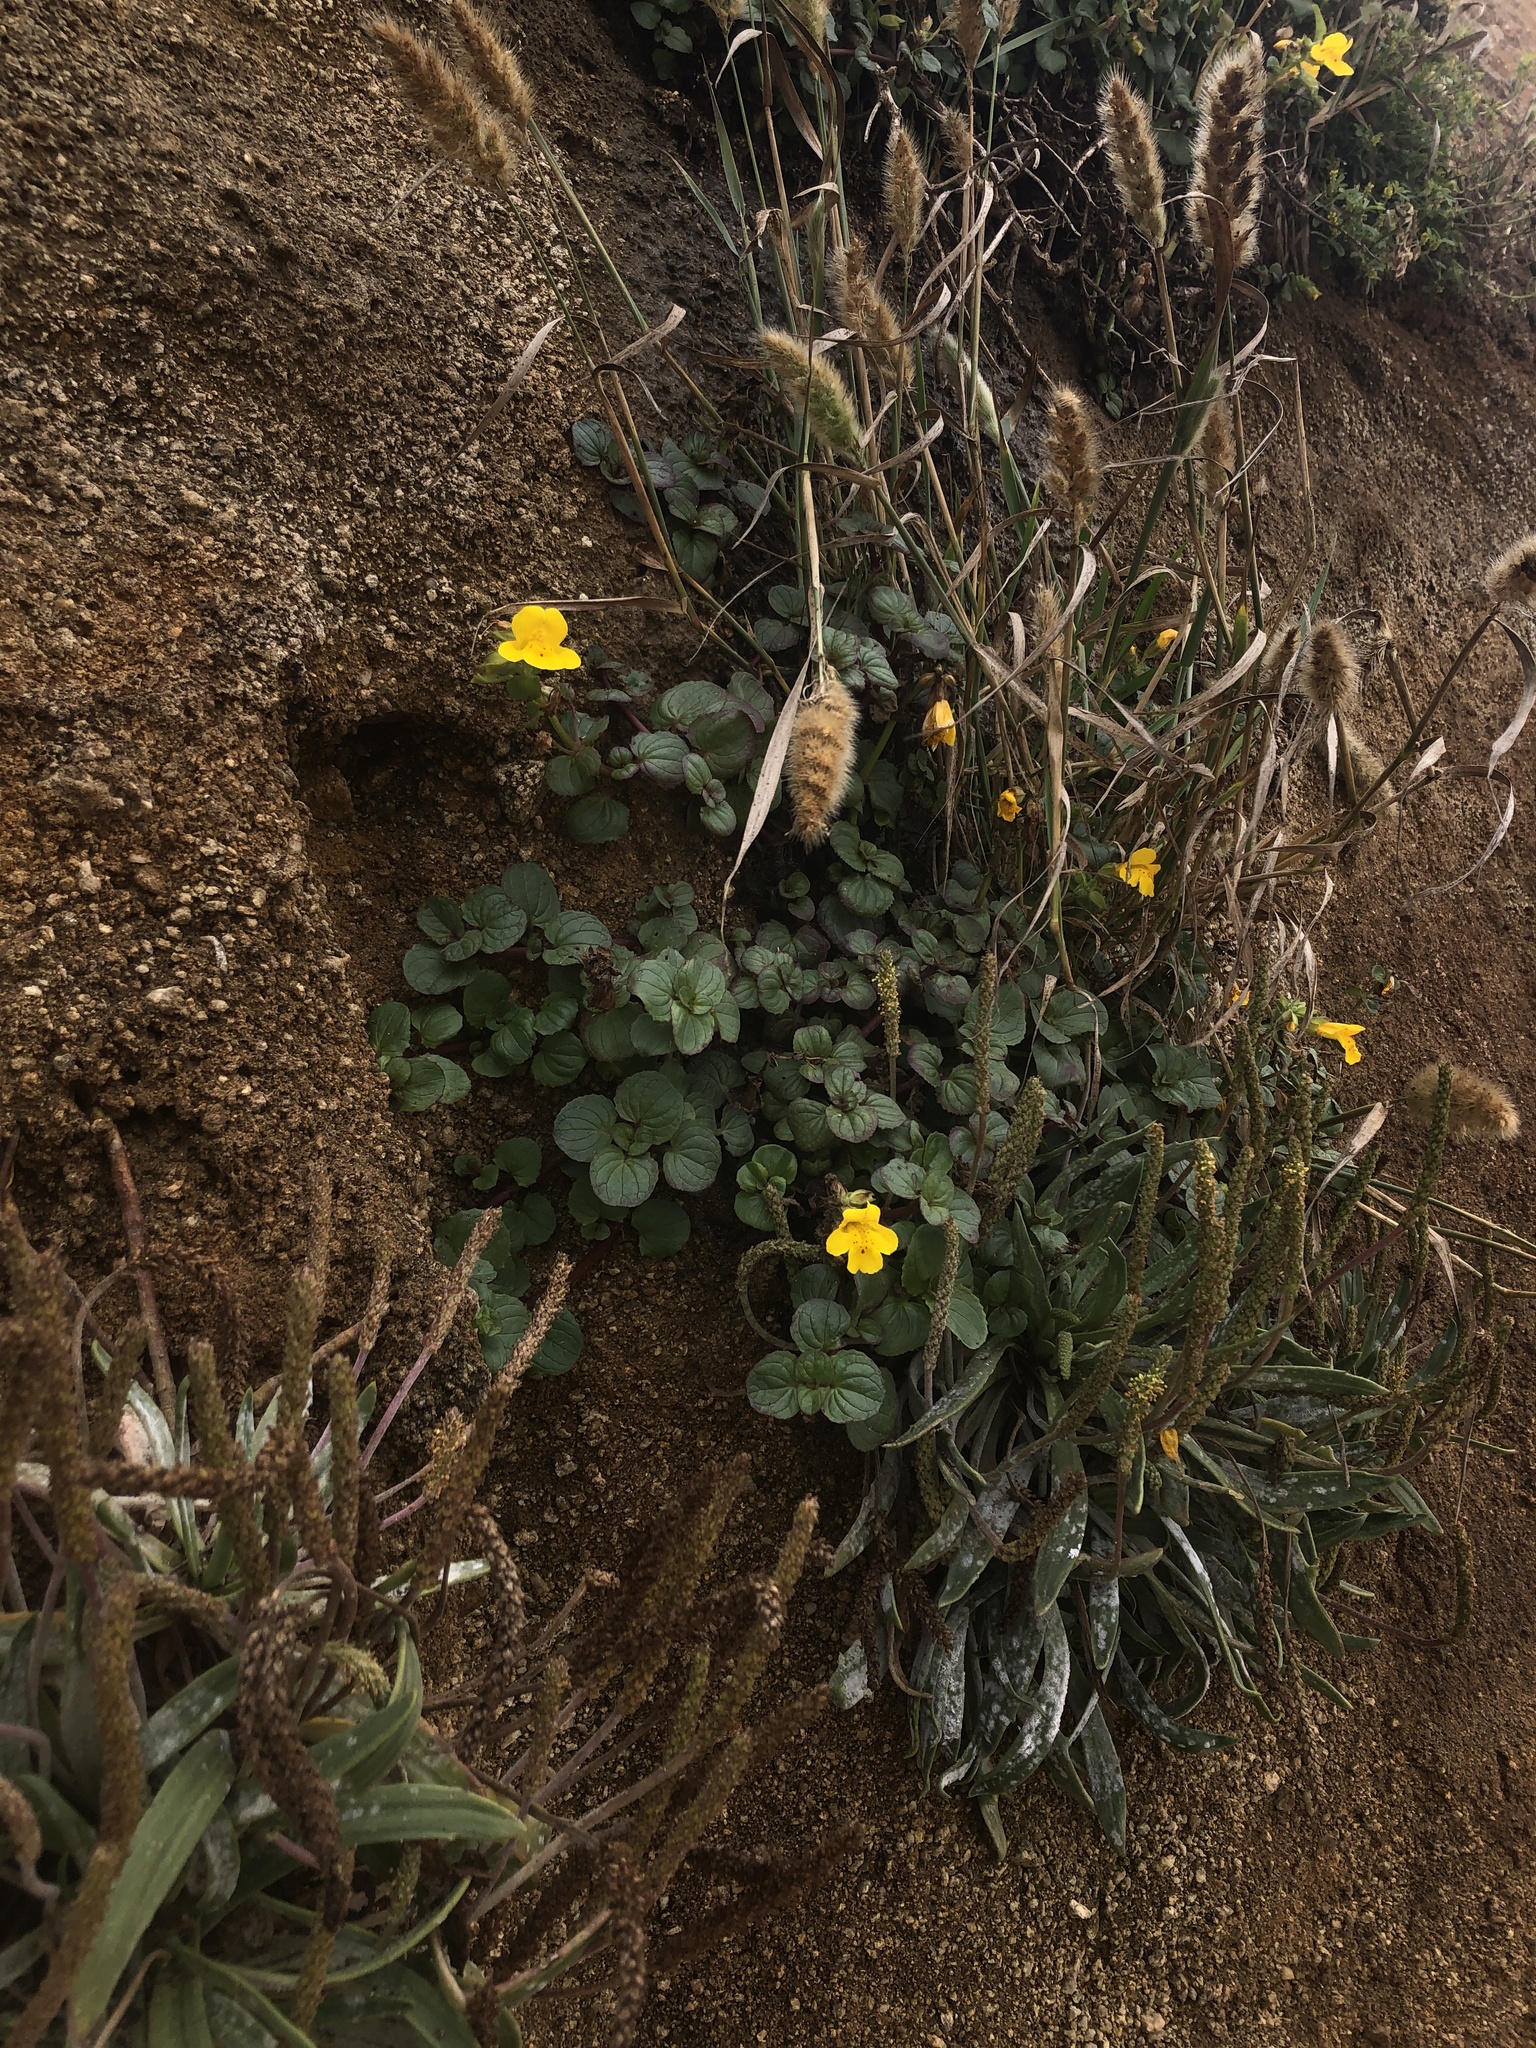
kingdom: Plantae
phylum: Tracheophyta
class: Magnoliopsida
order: Lamiales
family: Phrymaceae
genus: Erythranthe
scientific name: Erythranthe grandis
